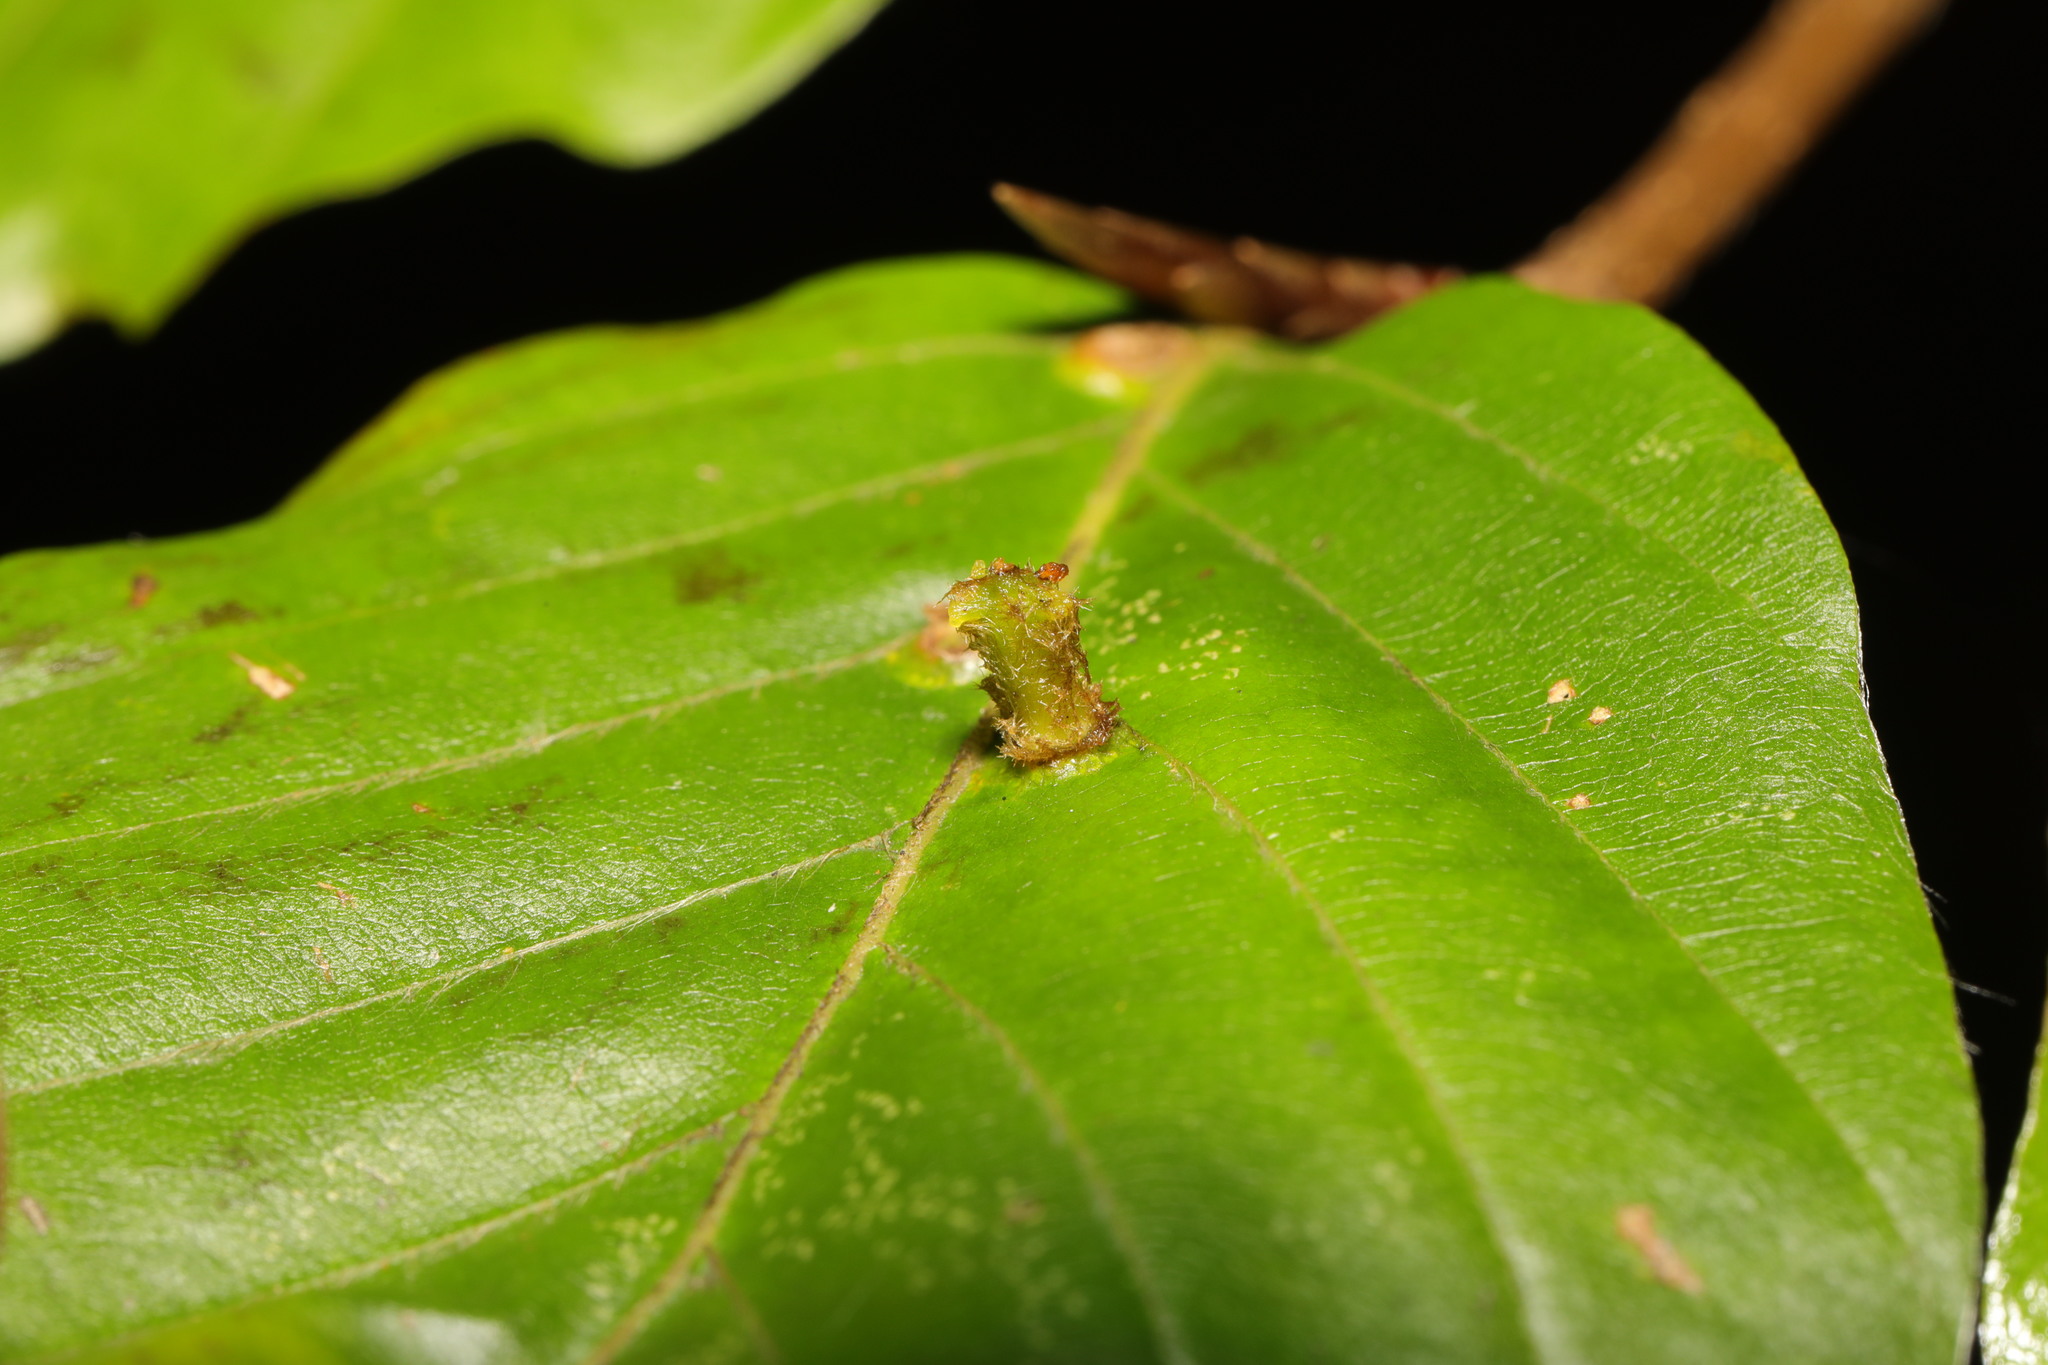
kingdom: Animalia
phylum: Arthropoda
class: Insecta
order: Diptera
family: Cecidomyiidae
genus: Hartigiola
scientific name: Hartigiola annulipes
